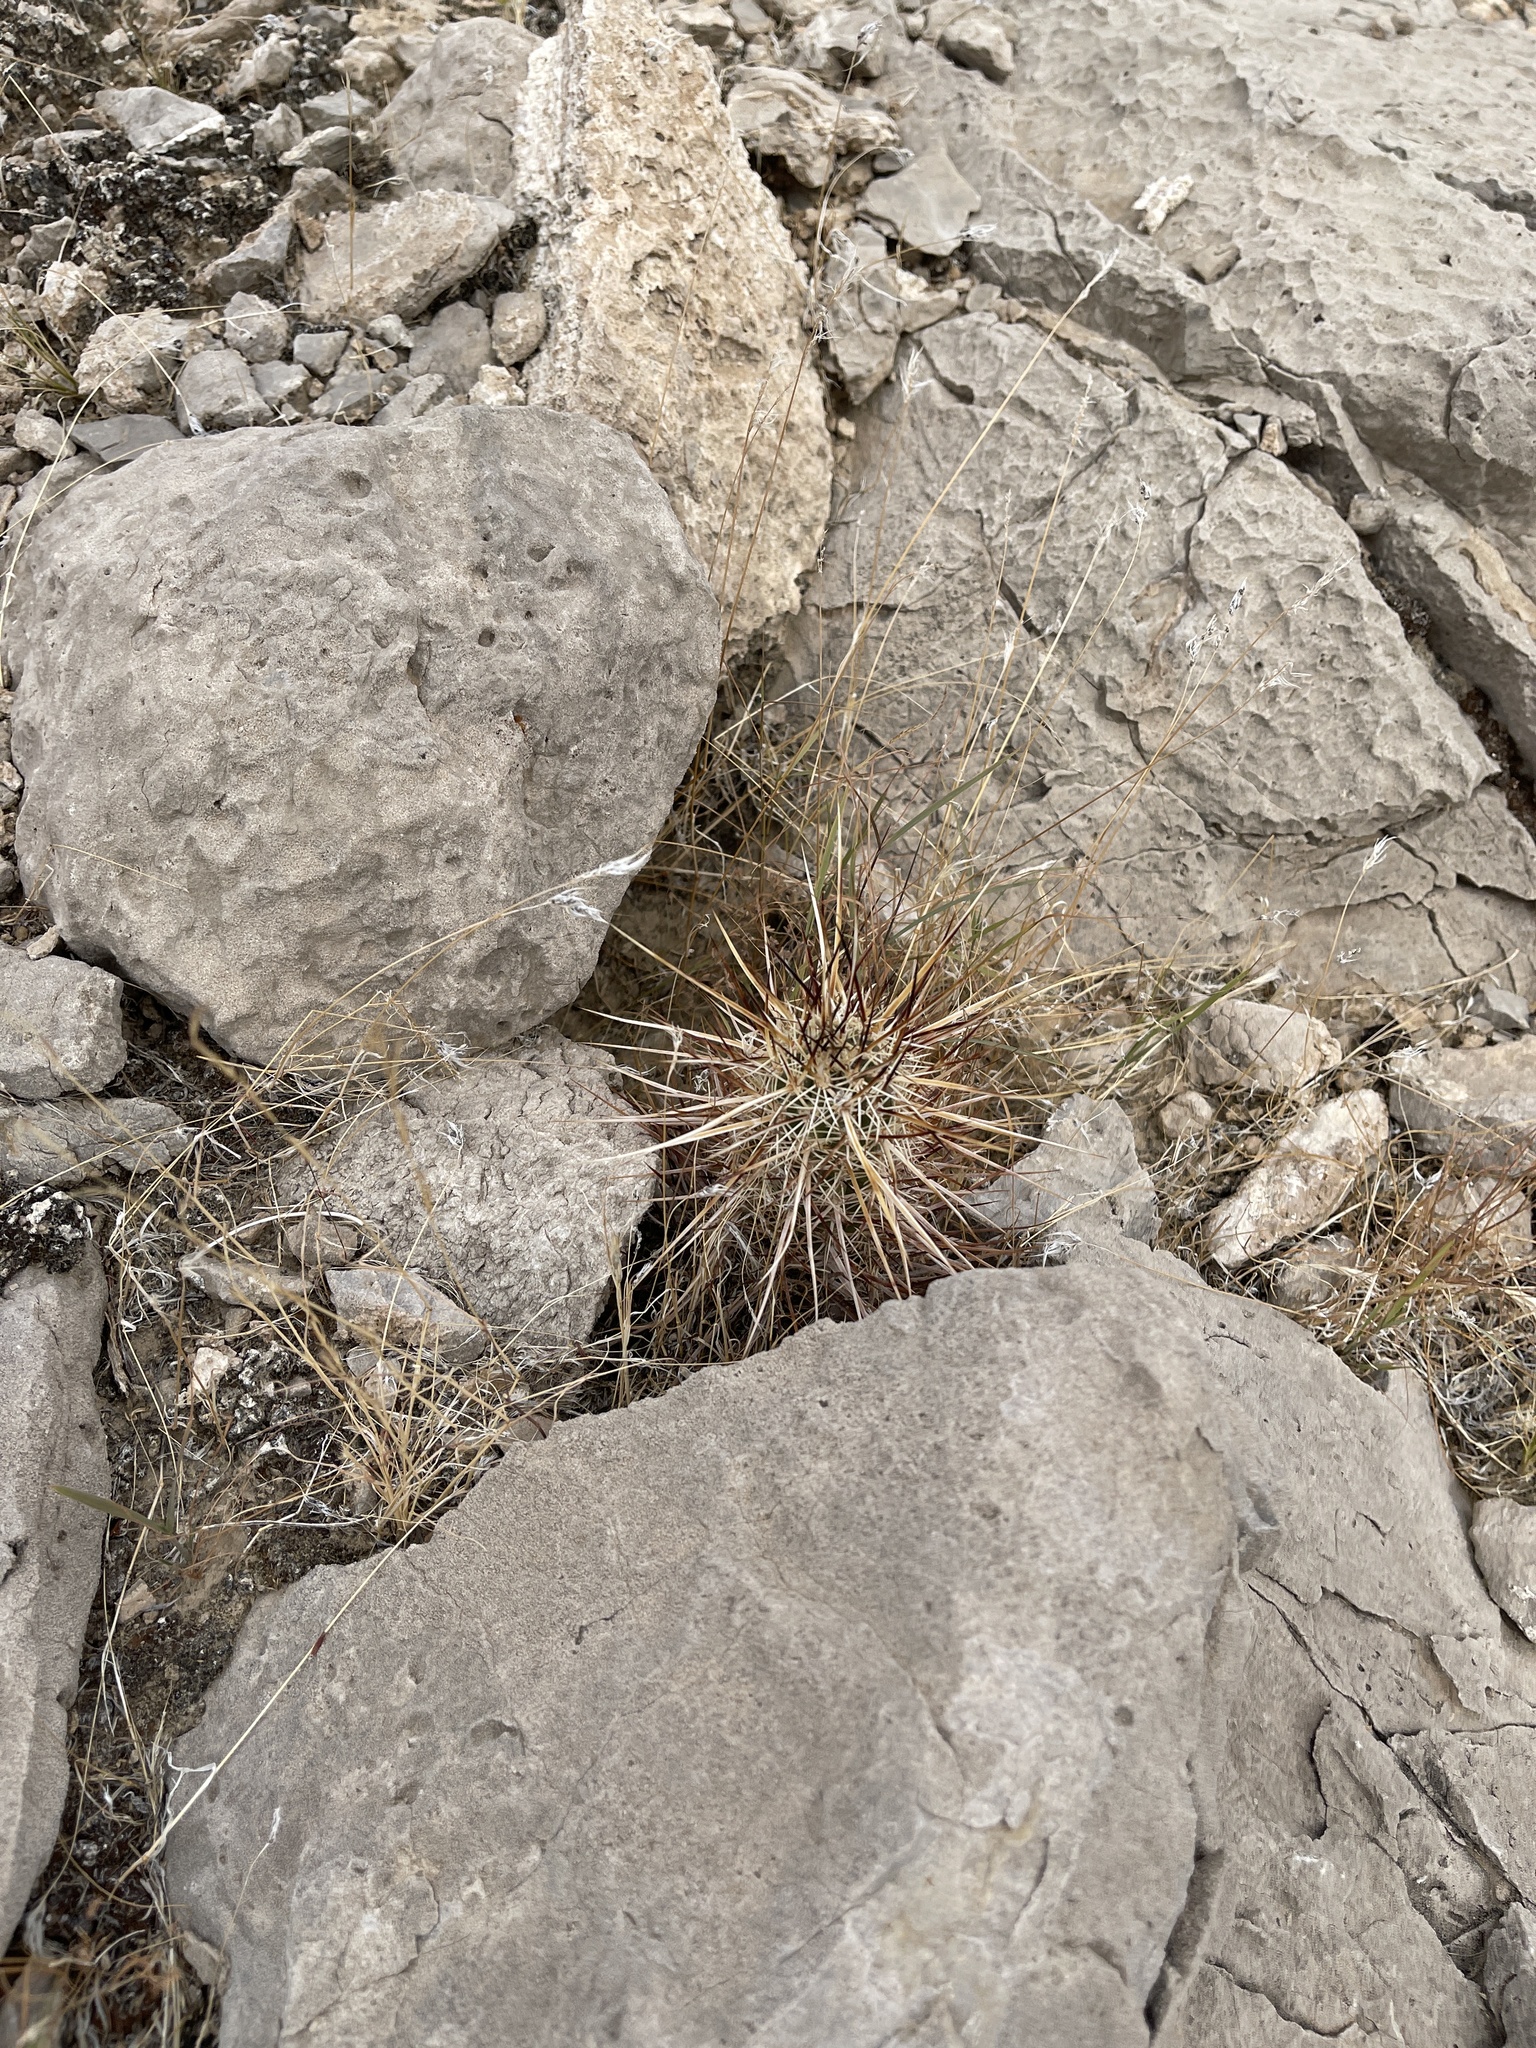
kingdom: Plantae
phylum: Tracheophyta
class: Magnoliopsida
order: Caryophyllales
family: Cactaceae
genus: Echinocereus
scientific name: Echinocereus engelmannii
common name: Engelmann's hedgehog cactus
